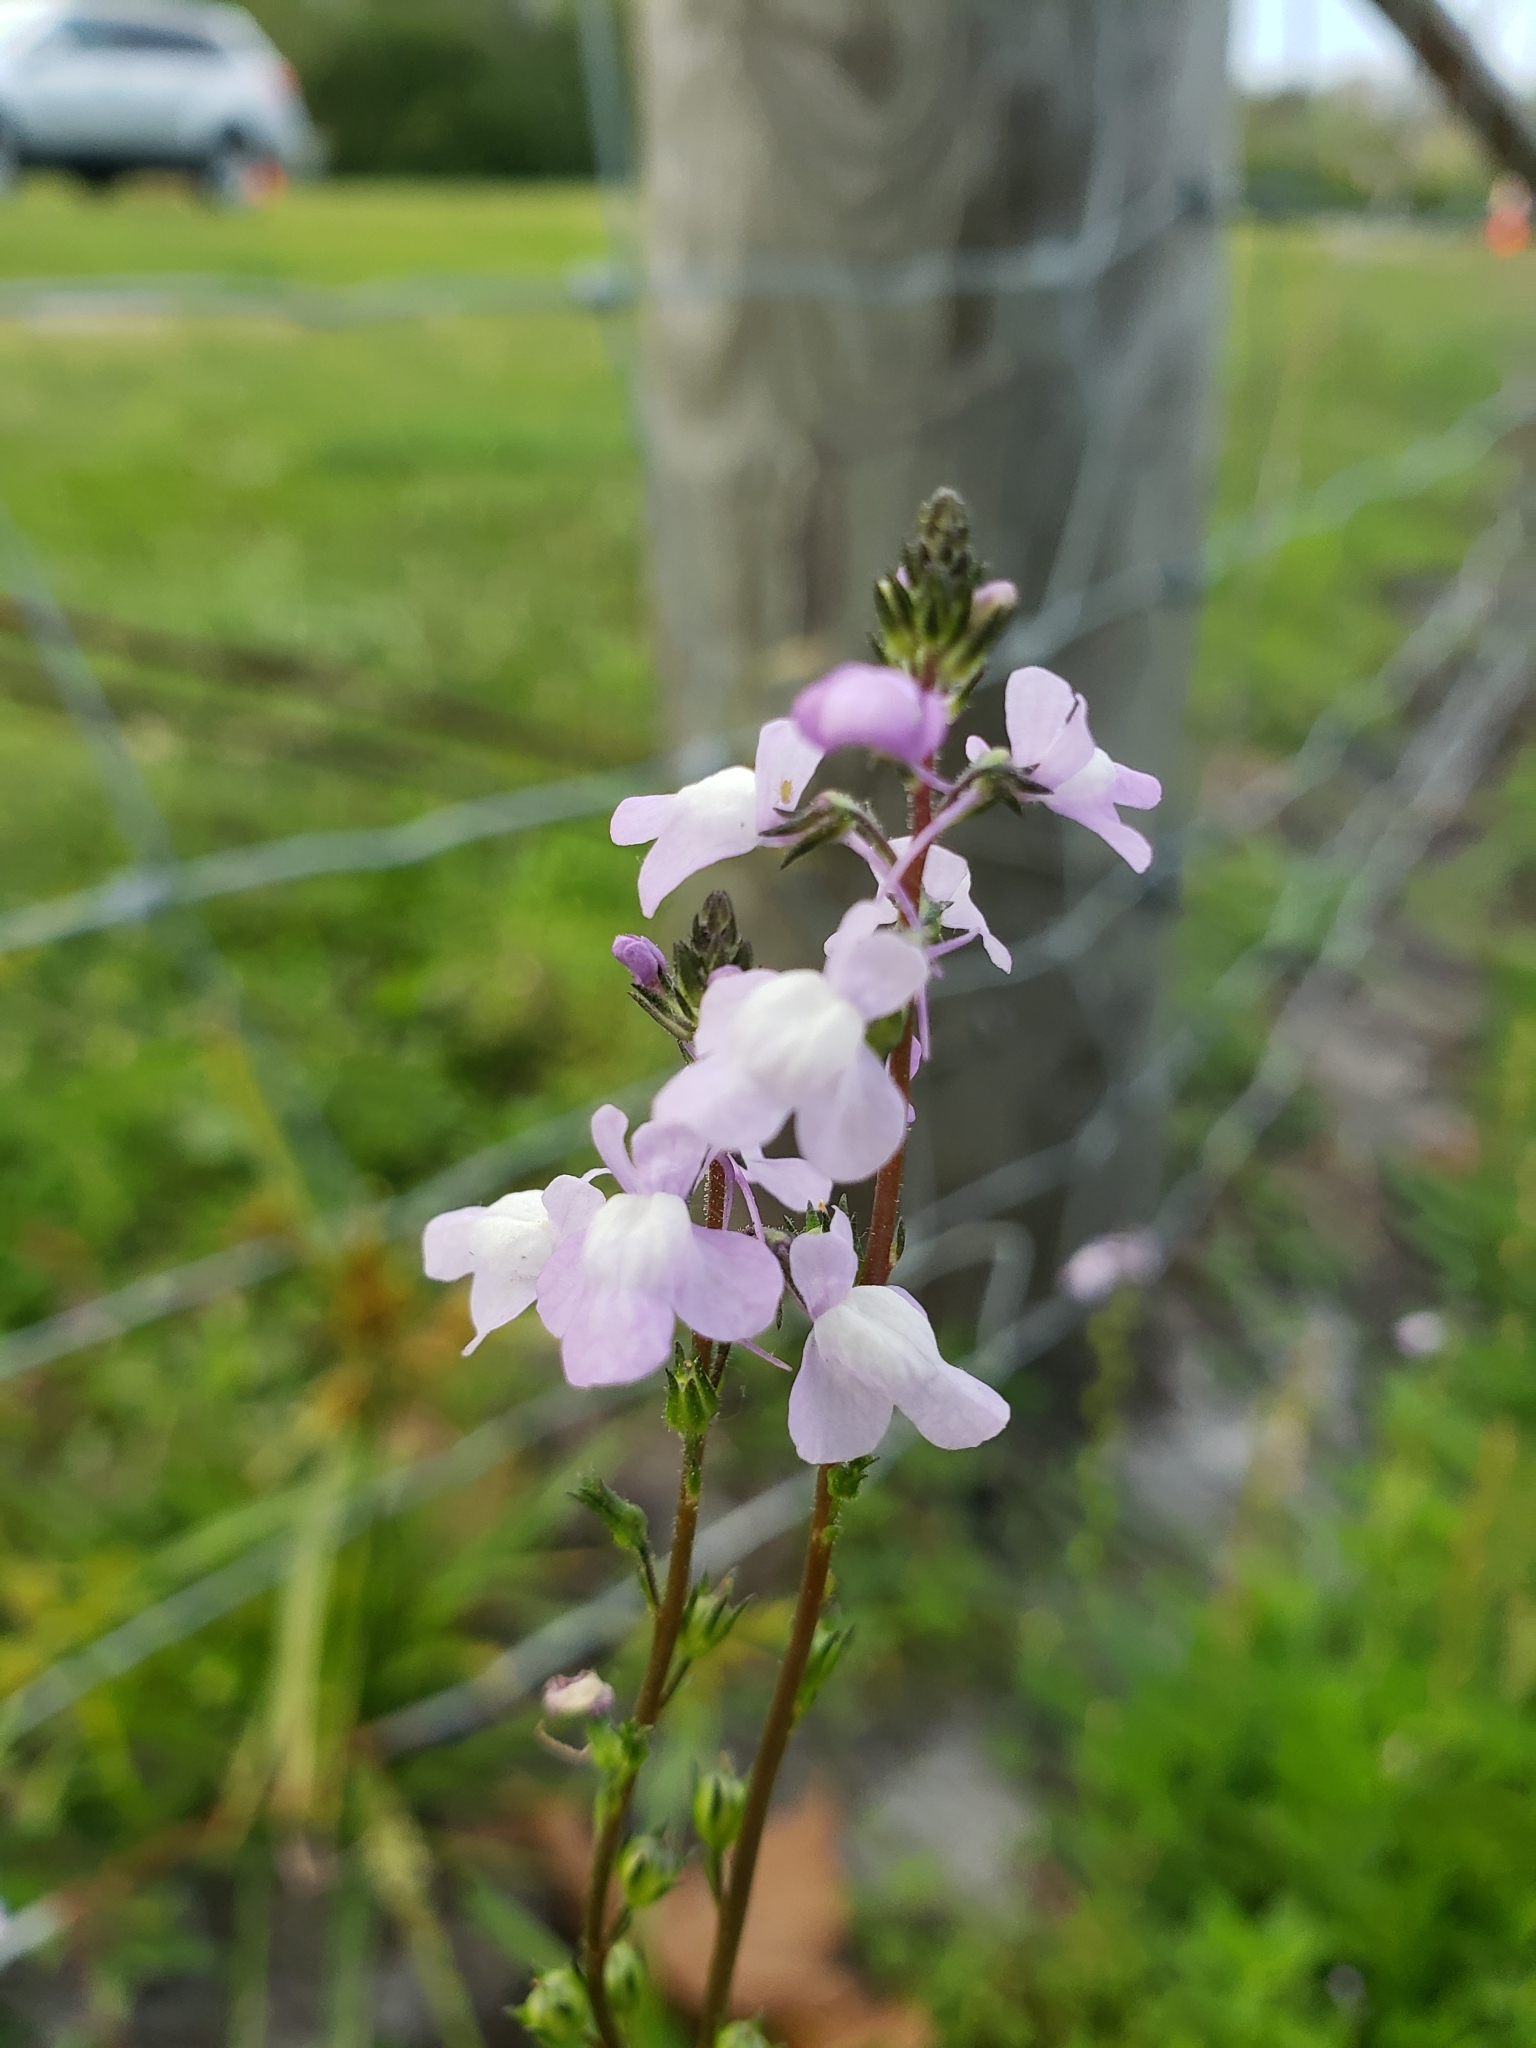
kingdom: Plantae
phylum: Tracheophyta
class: Magnoliopsida
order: Lamiales
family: Plantaginaceae
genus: Nuttallanthus
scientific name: Nuttallanthus canadensis
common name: Blue toadflax
